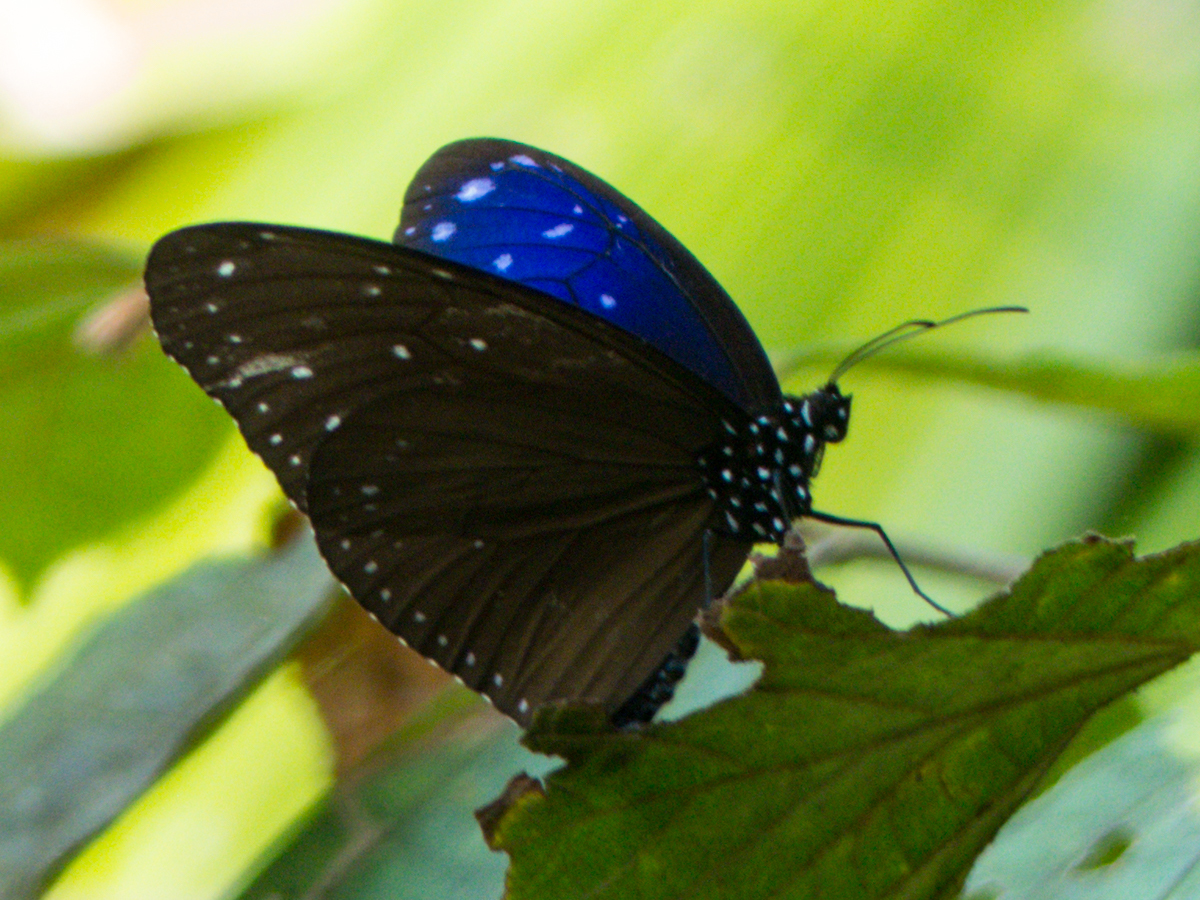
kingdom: Animalia
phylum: Arthropoda
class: Insecta
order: Lepidoptera
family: Nymphalidae
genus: Euploea
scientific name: Euploea mulciber
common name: Striped blue crow butterfly
